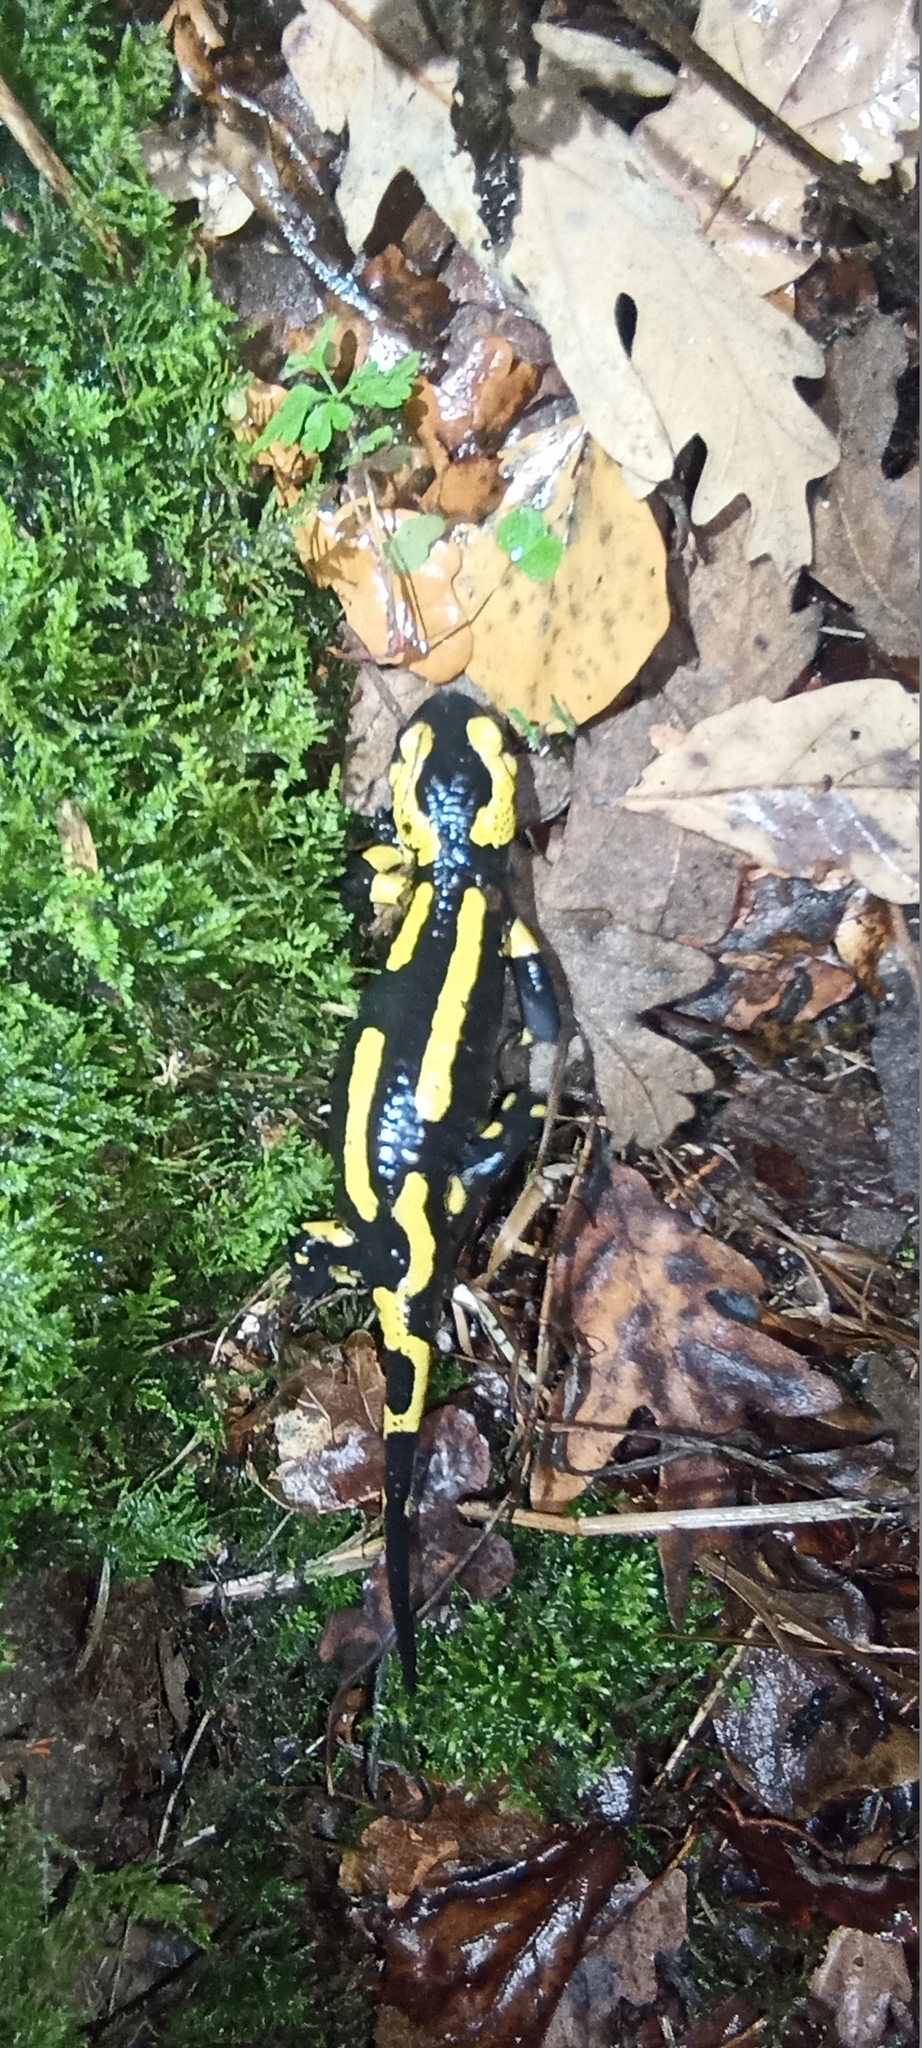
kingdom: Animalia
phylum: Chordata
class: Amphibia
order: Caudata
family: Salamandridae
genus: Salamandra
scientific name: Salamandra salamandra
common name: Fire salamander
